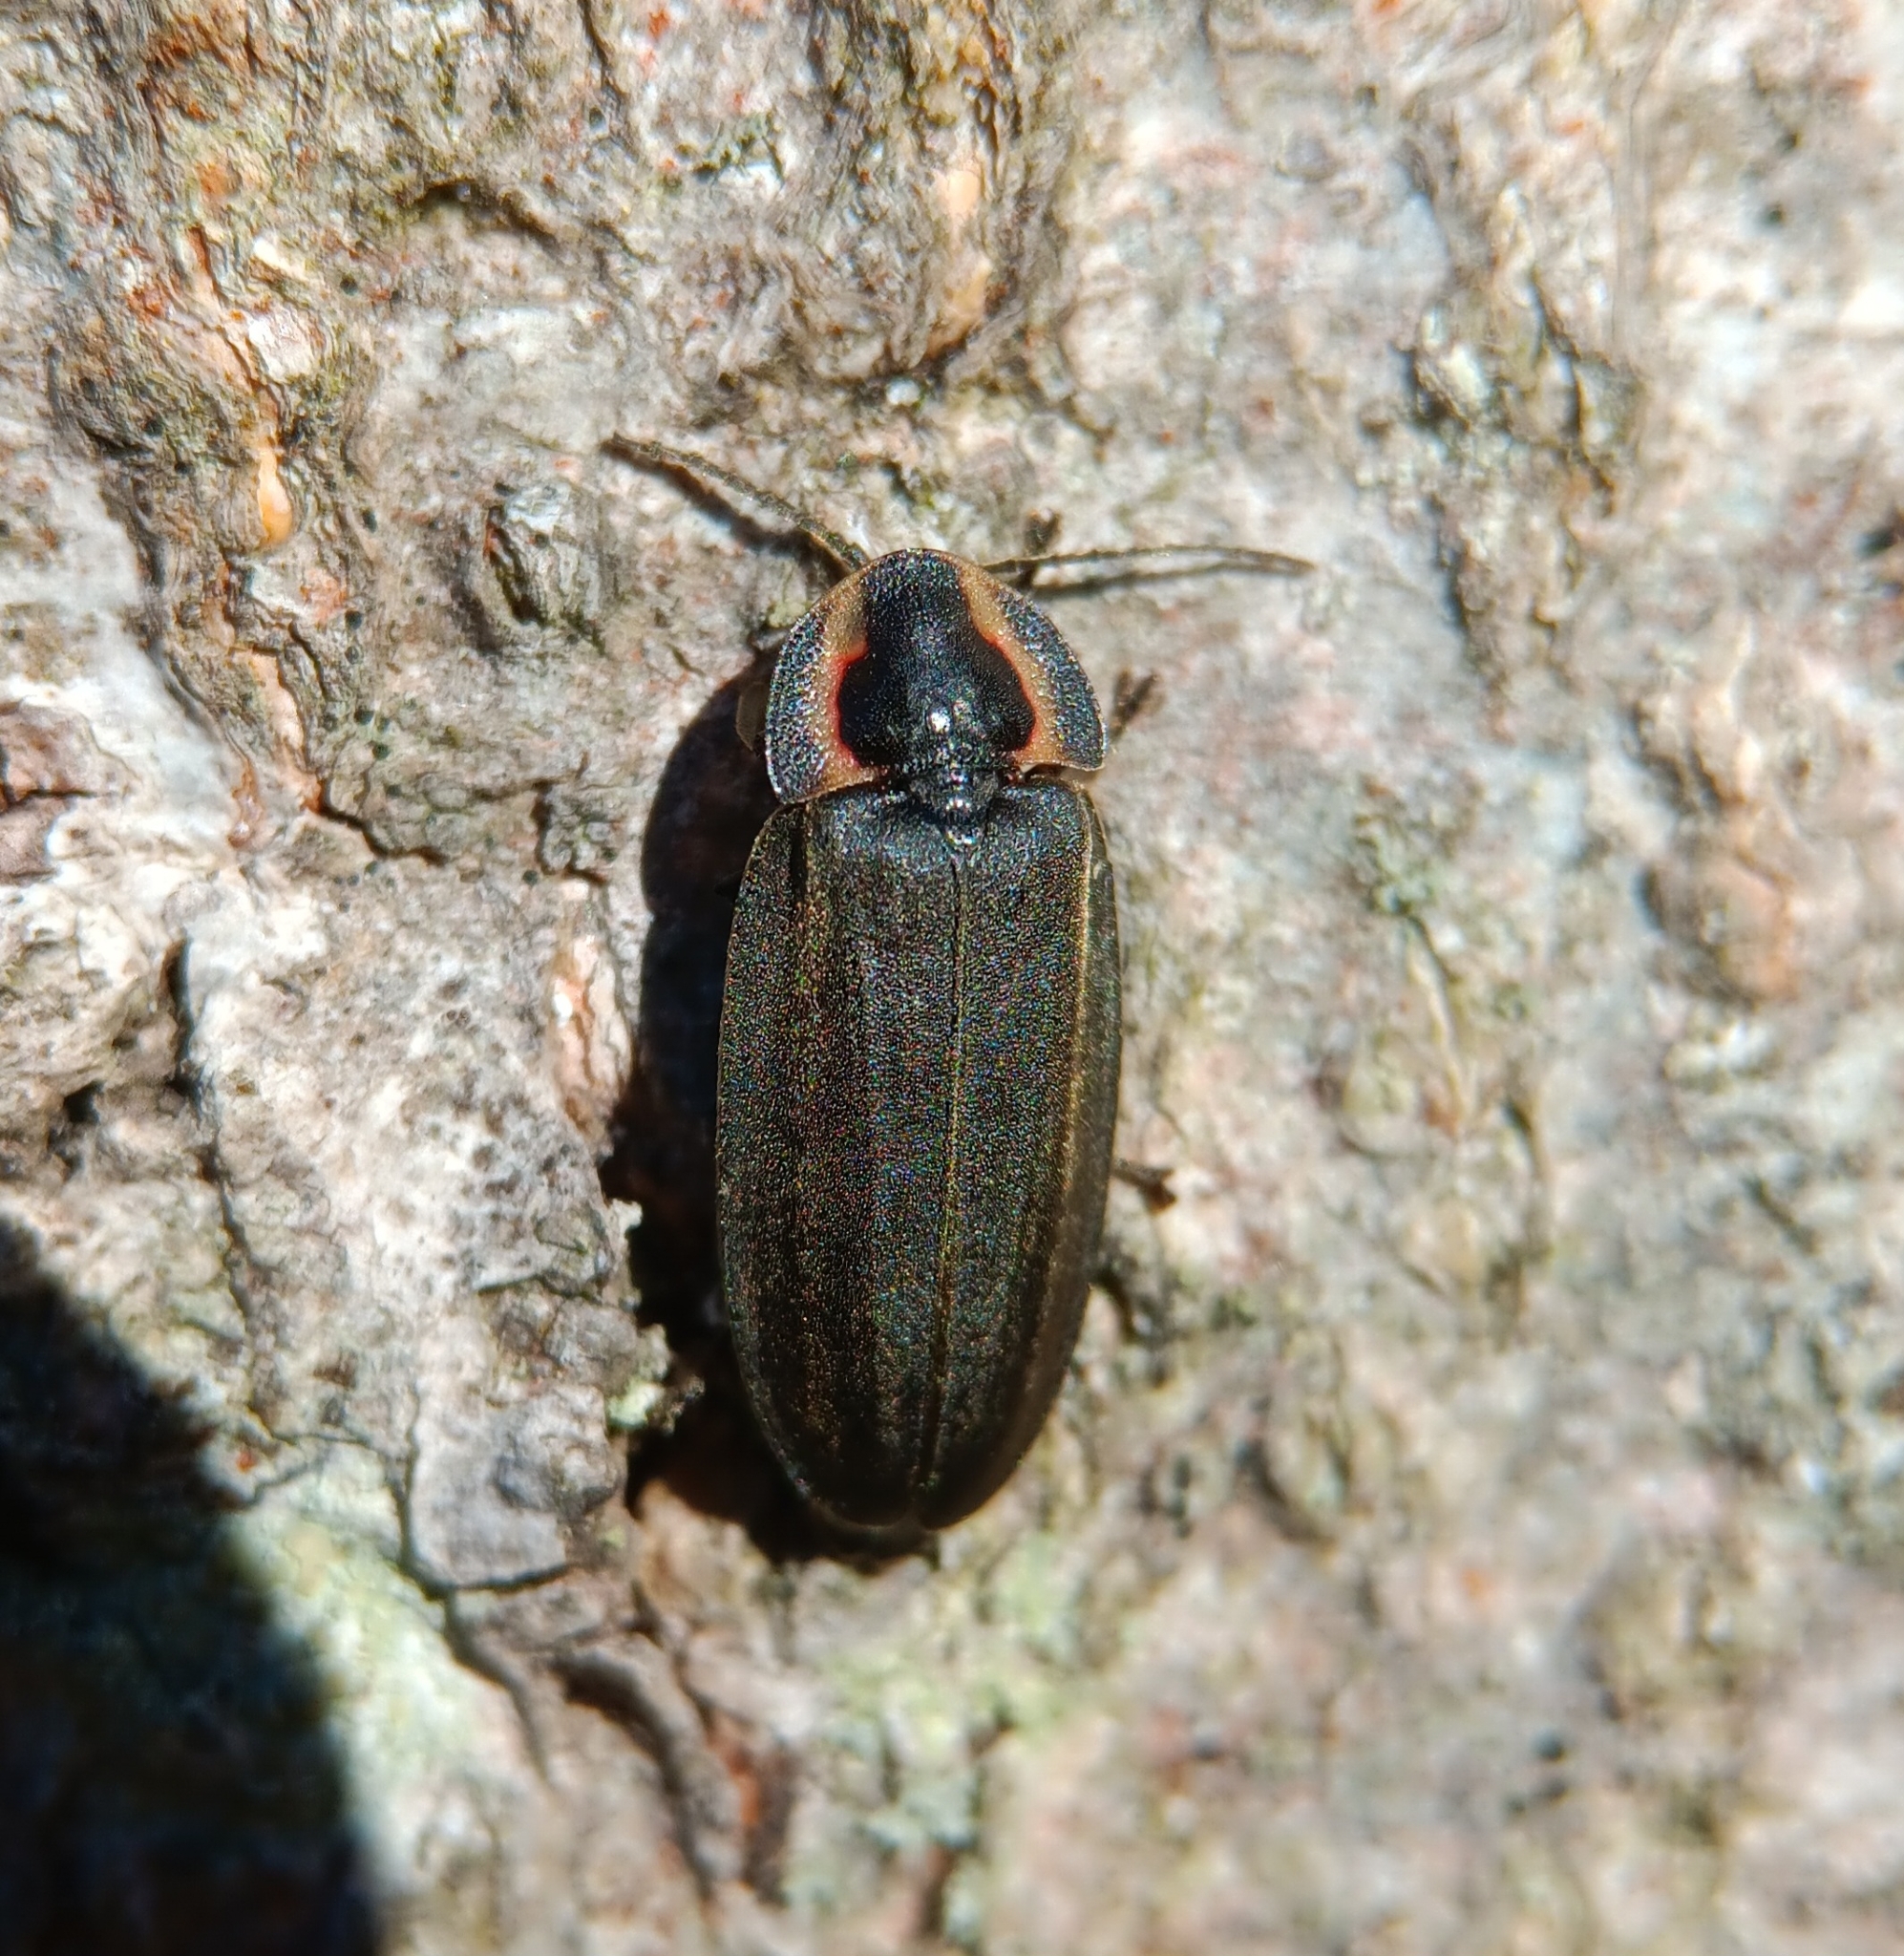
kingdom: Animalia
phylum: Arthropoda
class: Insecta
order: Coleoptera
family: Lampyridae
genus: Photinus
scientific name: Photinus corrusca
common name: Winter firefly
